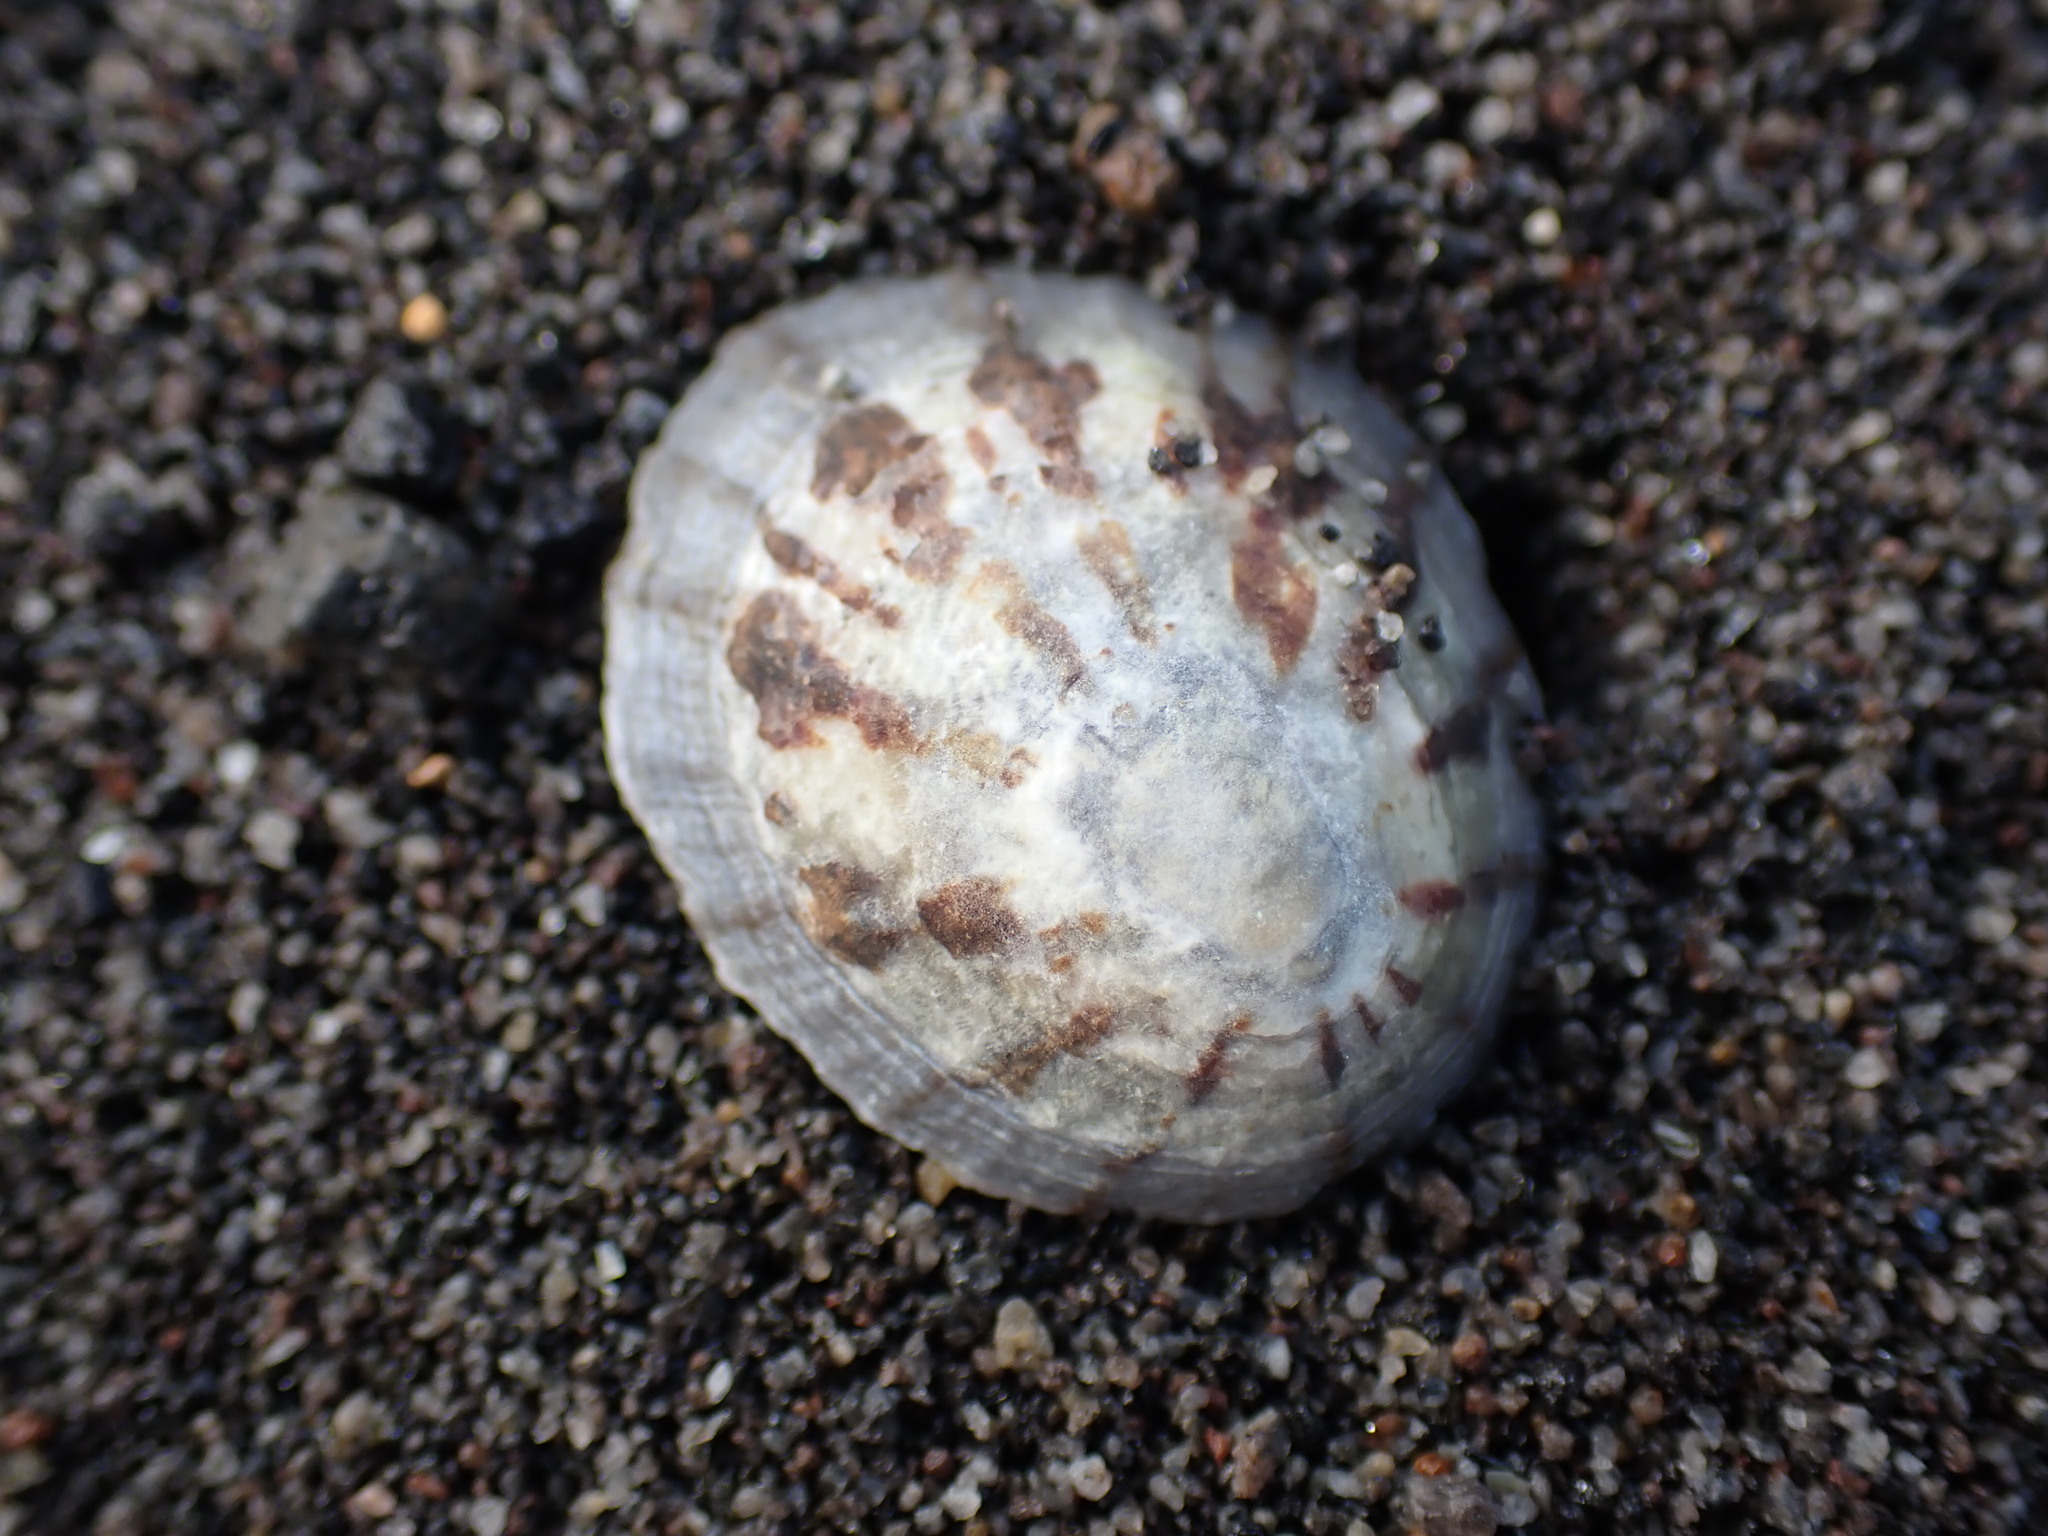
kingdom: Animalia
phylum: Mollusca
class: Gastropoda
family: Nacellidae
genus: Cellana
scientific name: Cellana radians
